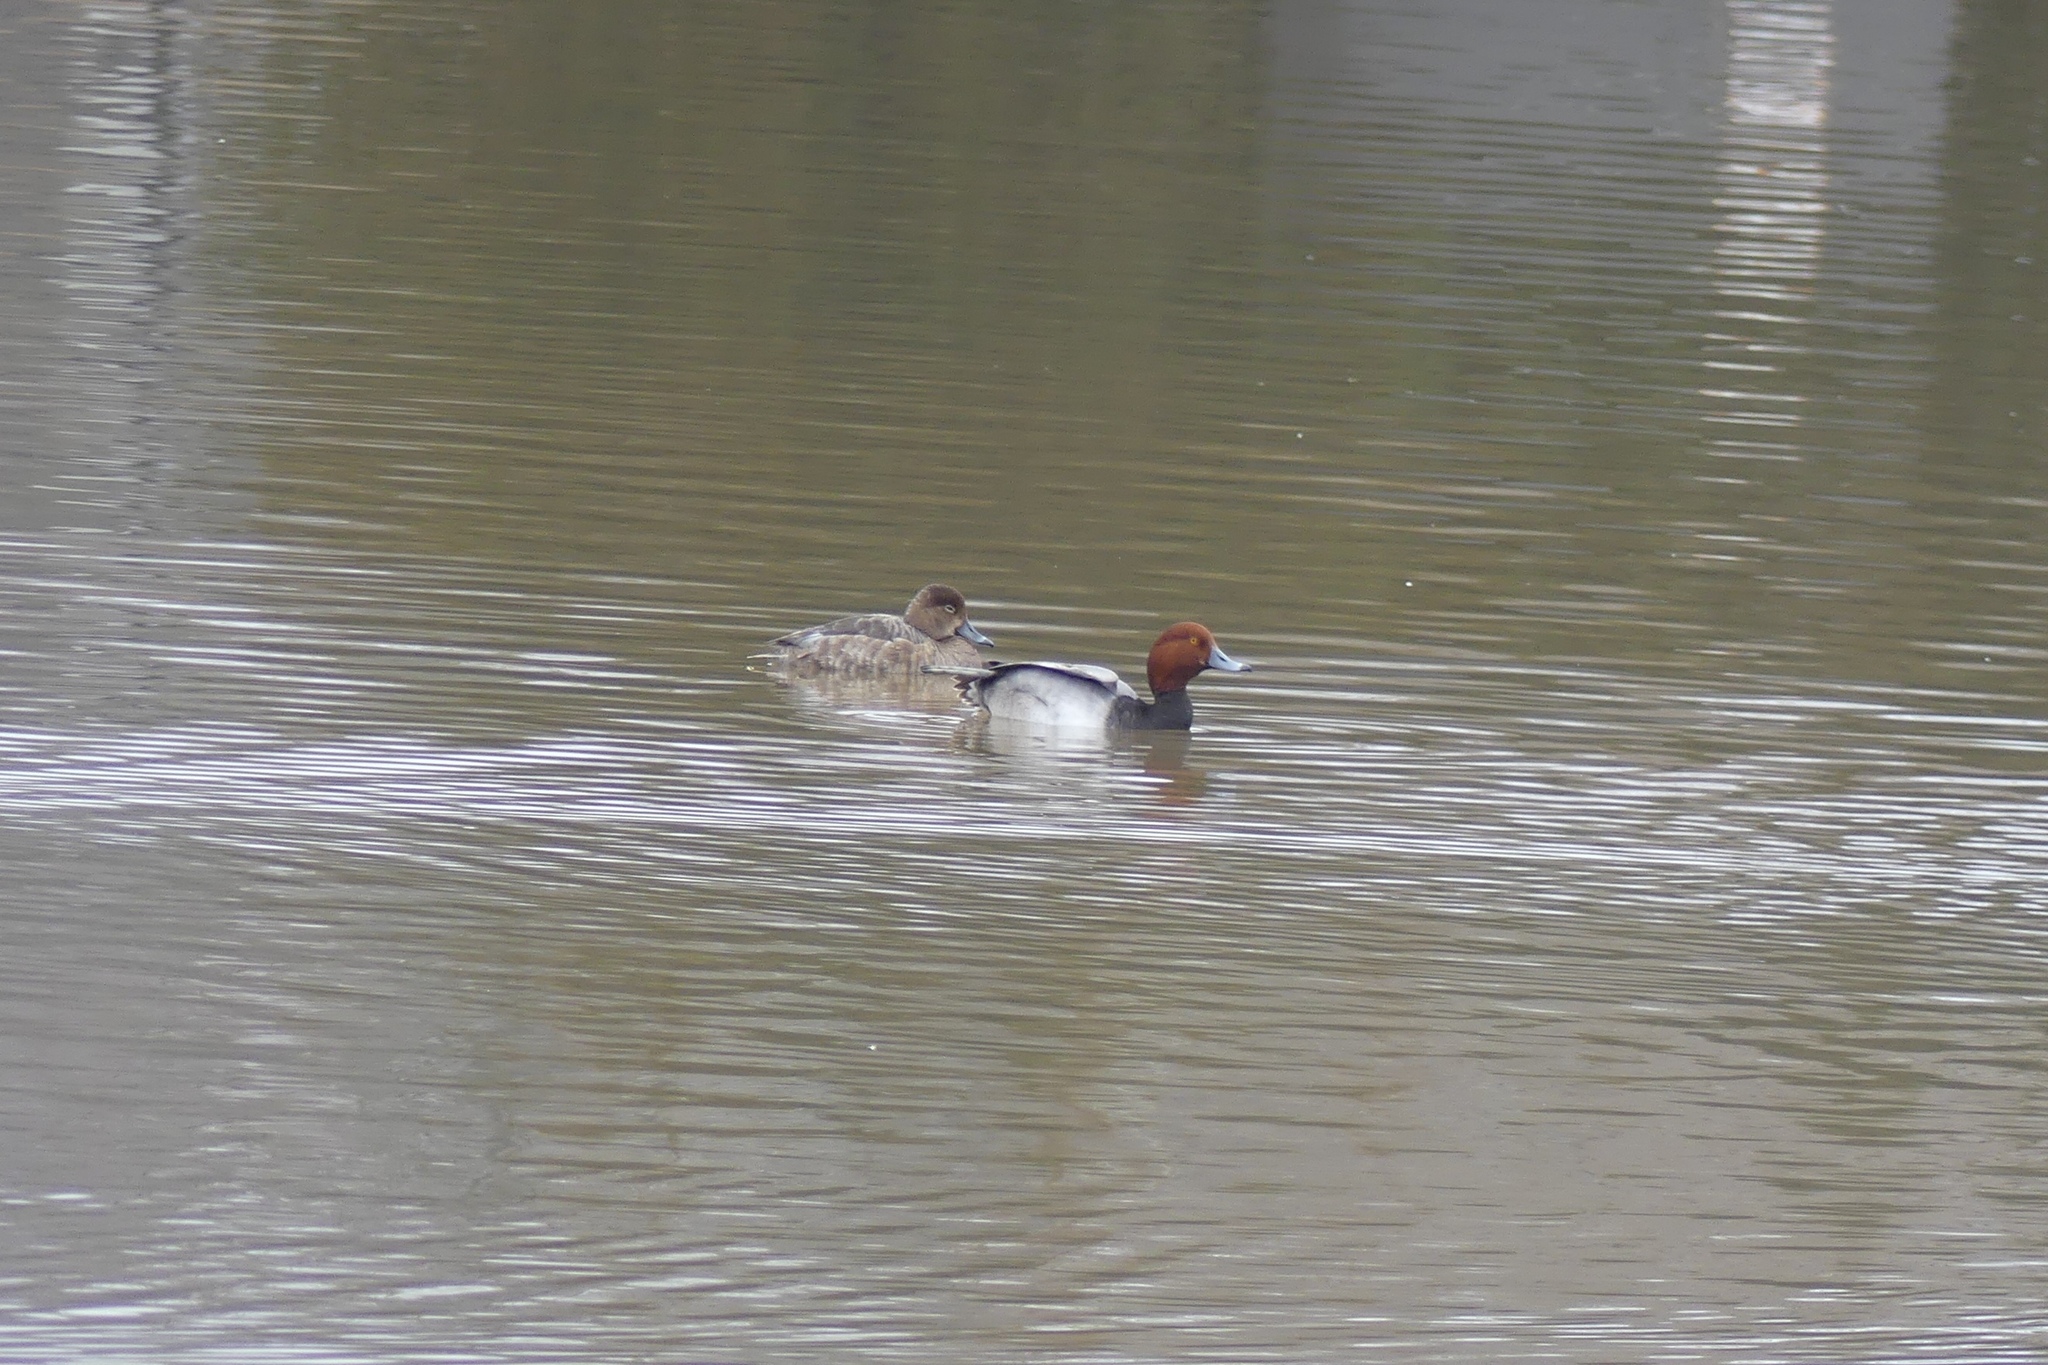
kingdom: Animalia
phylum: Chordata
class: Aves
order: Anseriformes
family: Anatidae
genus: Aythya
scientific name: Aythya americana
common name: Redhead
